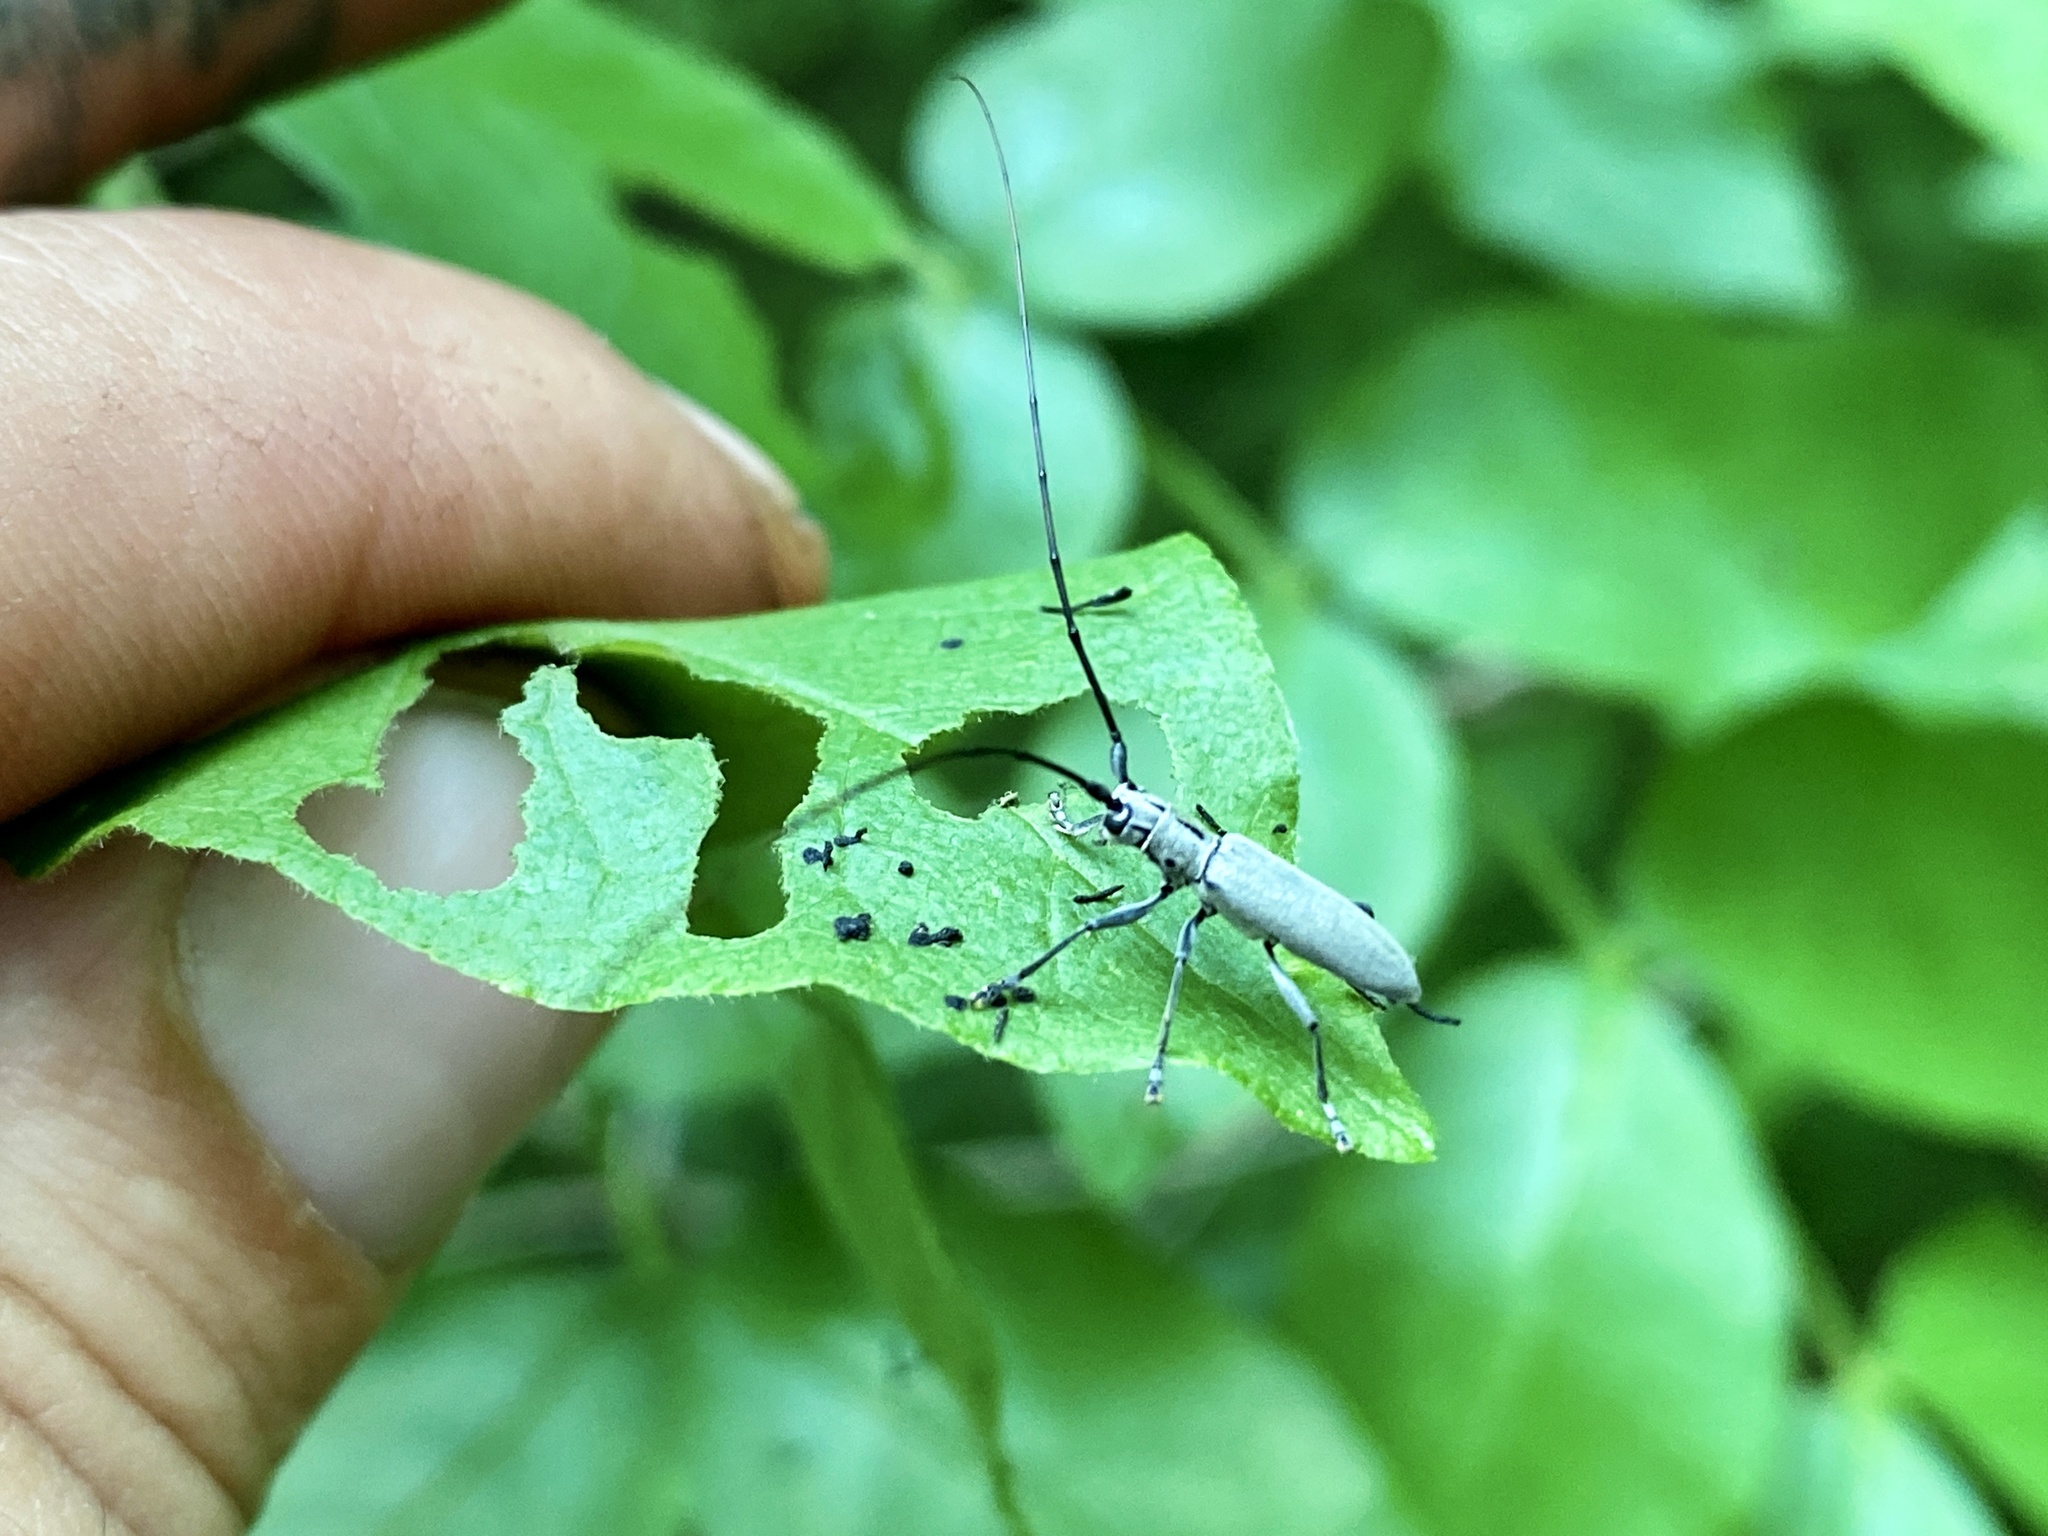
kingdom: Animalia
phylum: Arthropoda
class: Insecta
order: Coleoptera
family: Cerambycidae
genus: Dorcaschema
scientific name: Dorcaschema cinereum
